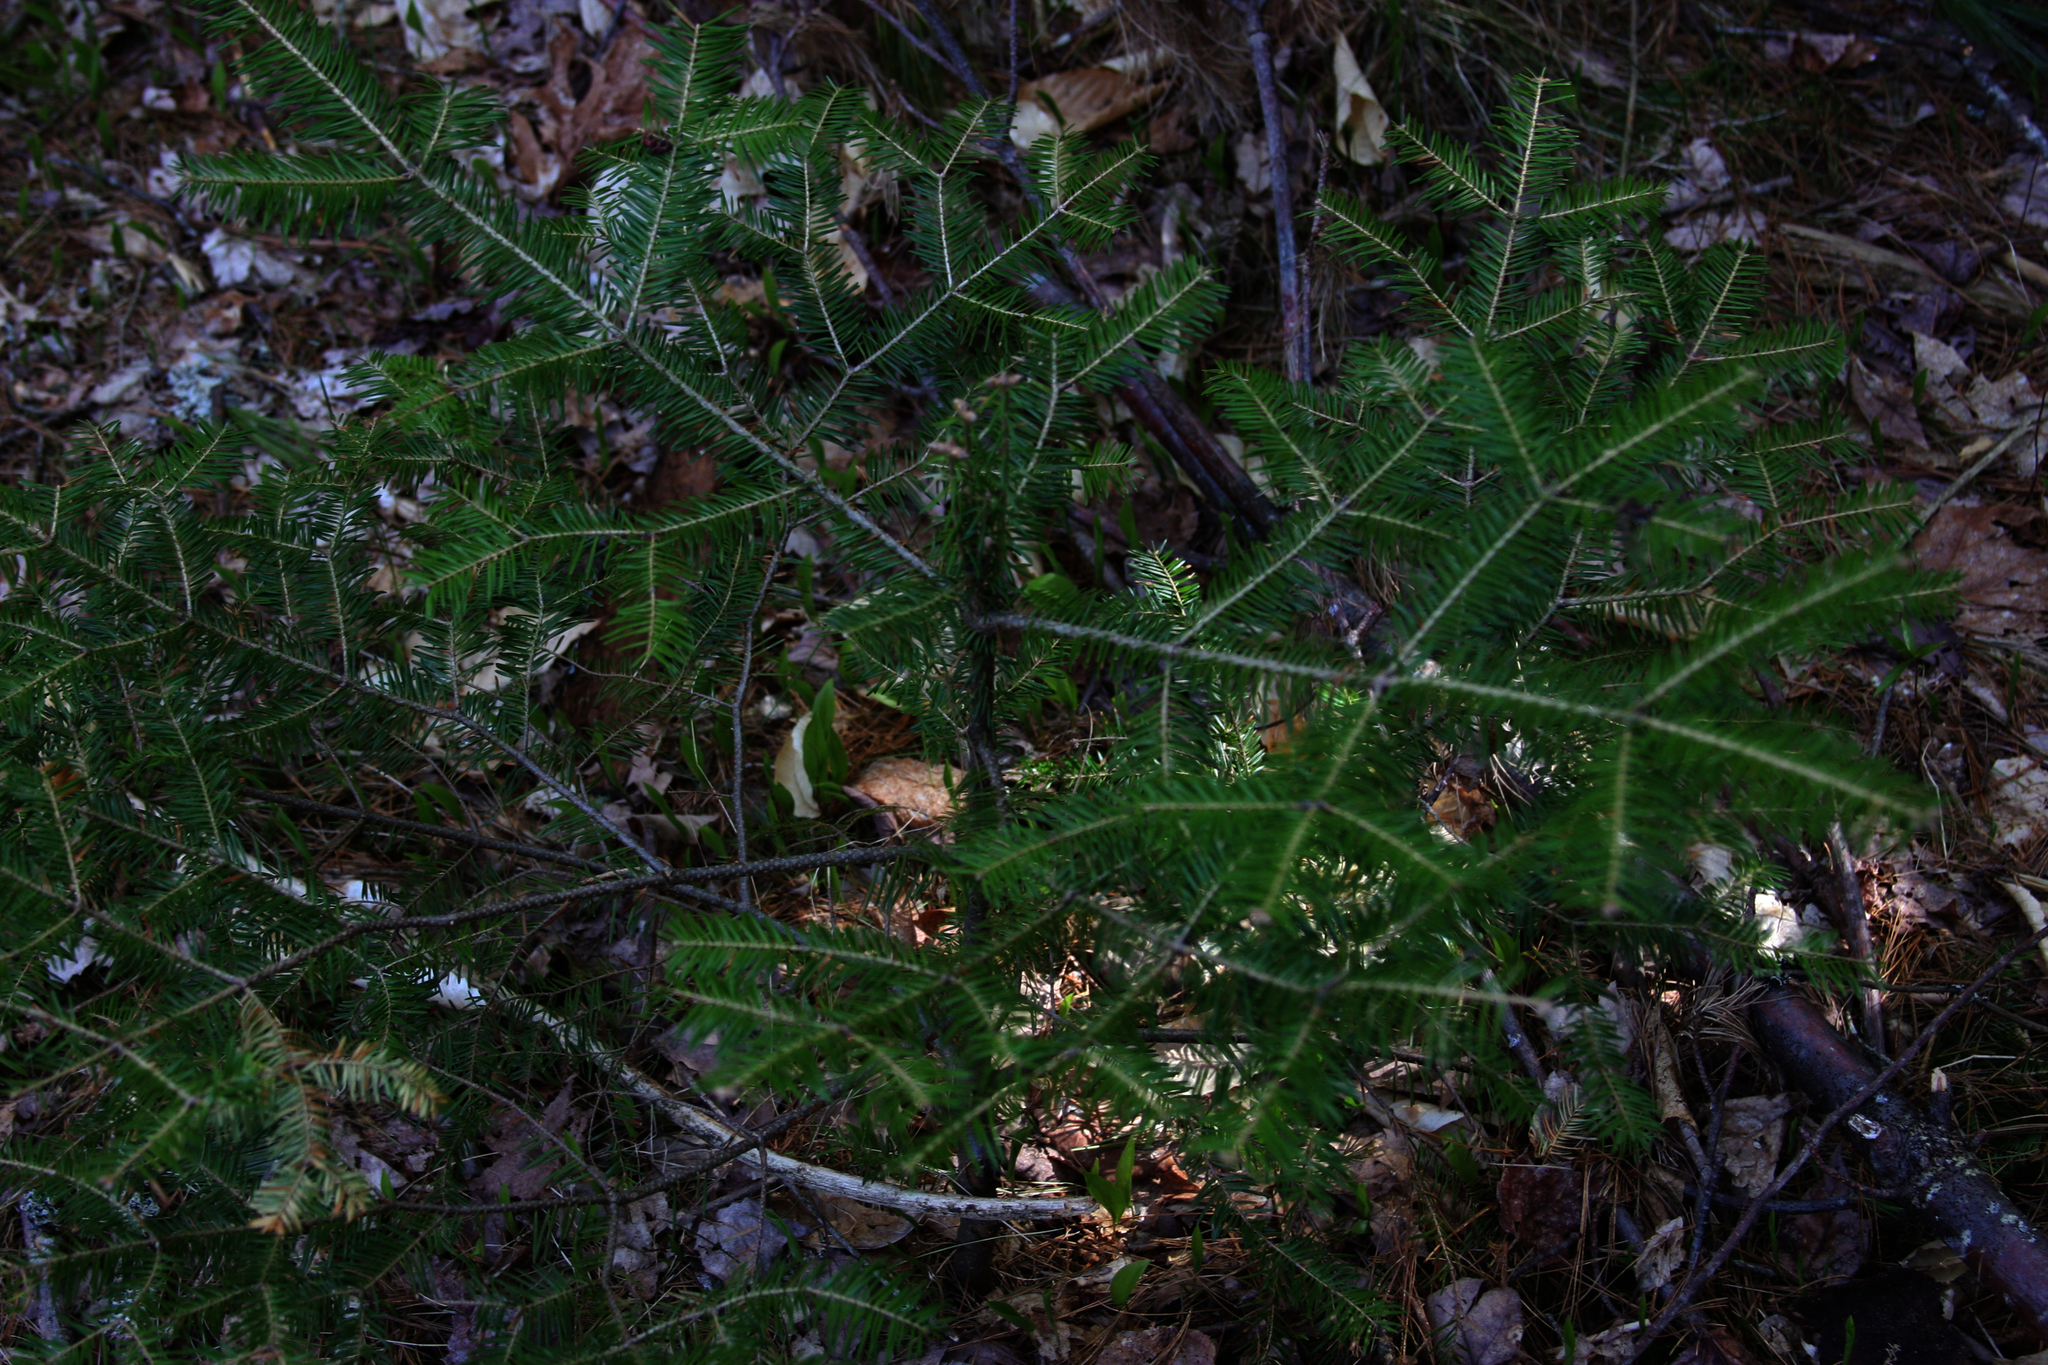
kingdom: Plantae
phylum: Tracheophyta
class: Pinopsida
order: Pinales
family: Pinaceae
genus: Abies
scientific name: Abies balsamea
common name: Balsam fir
